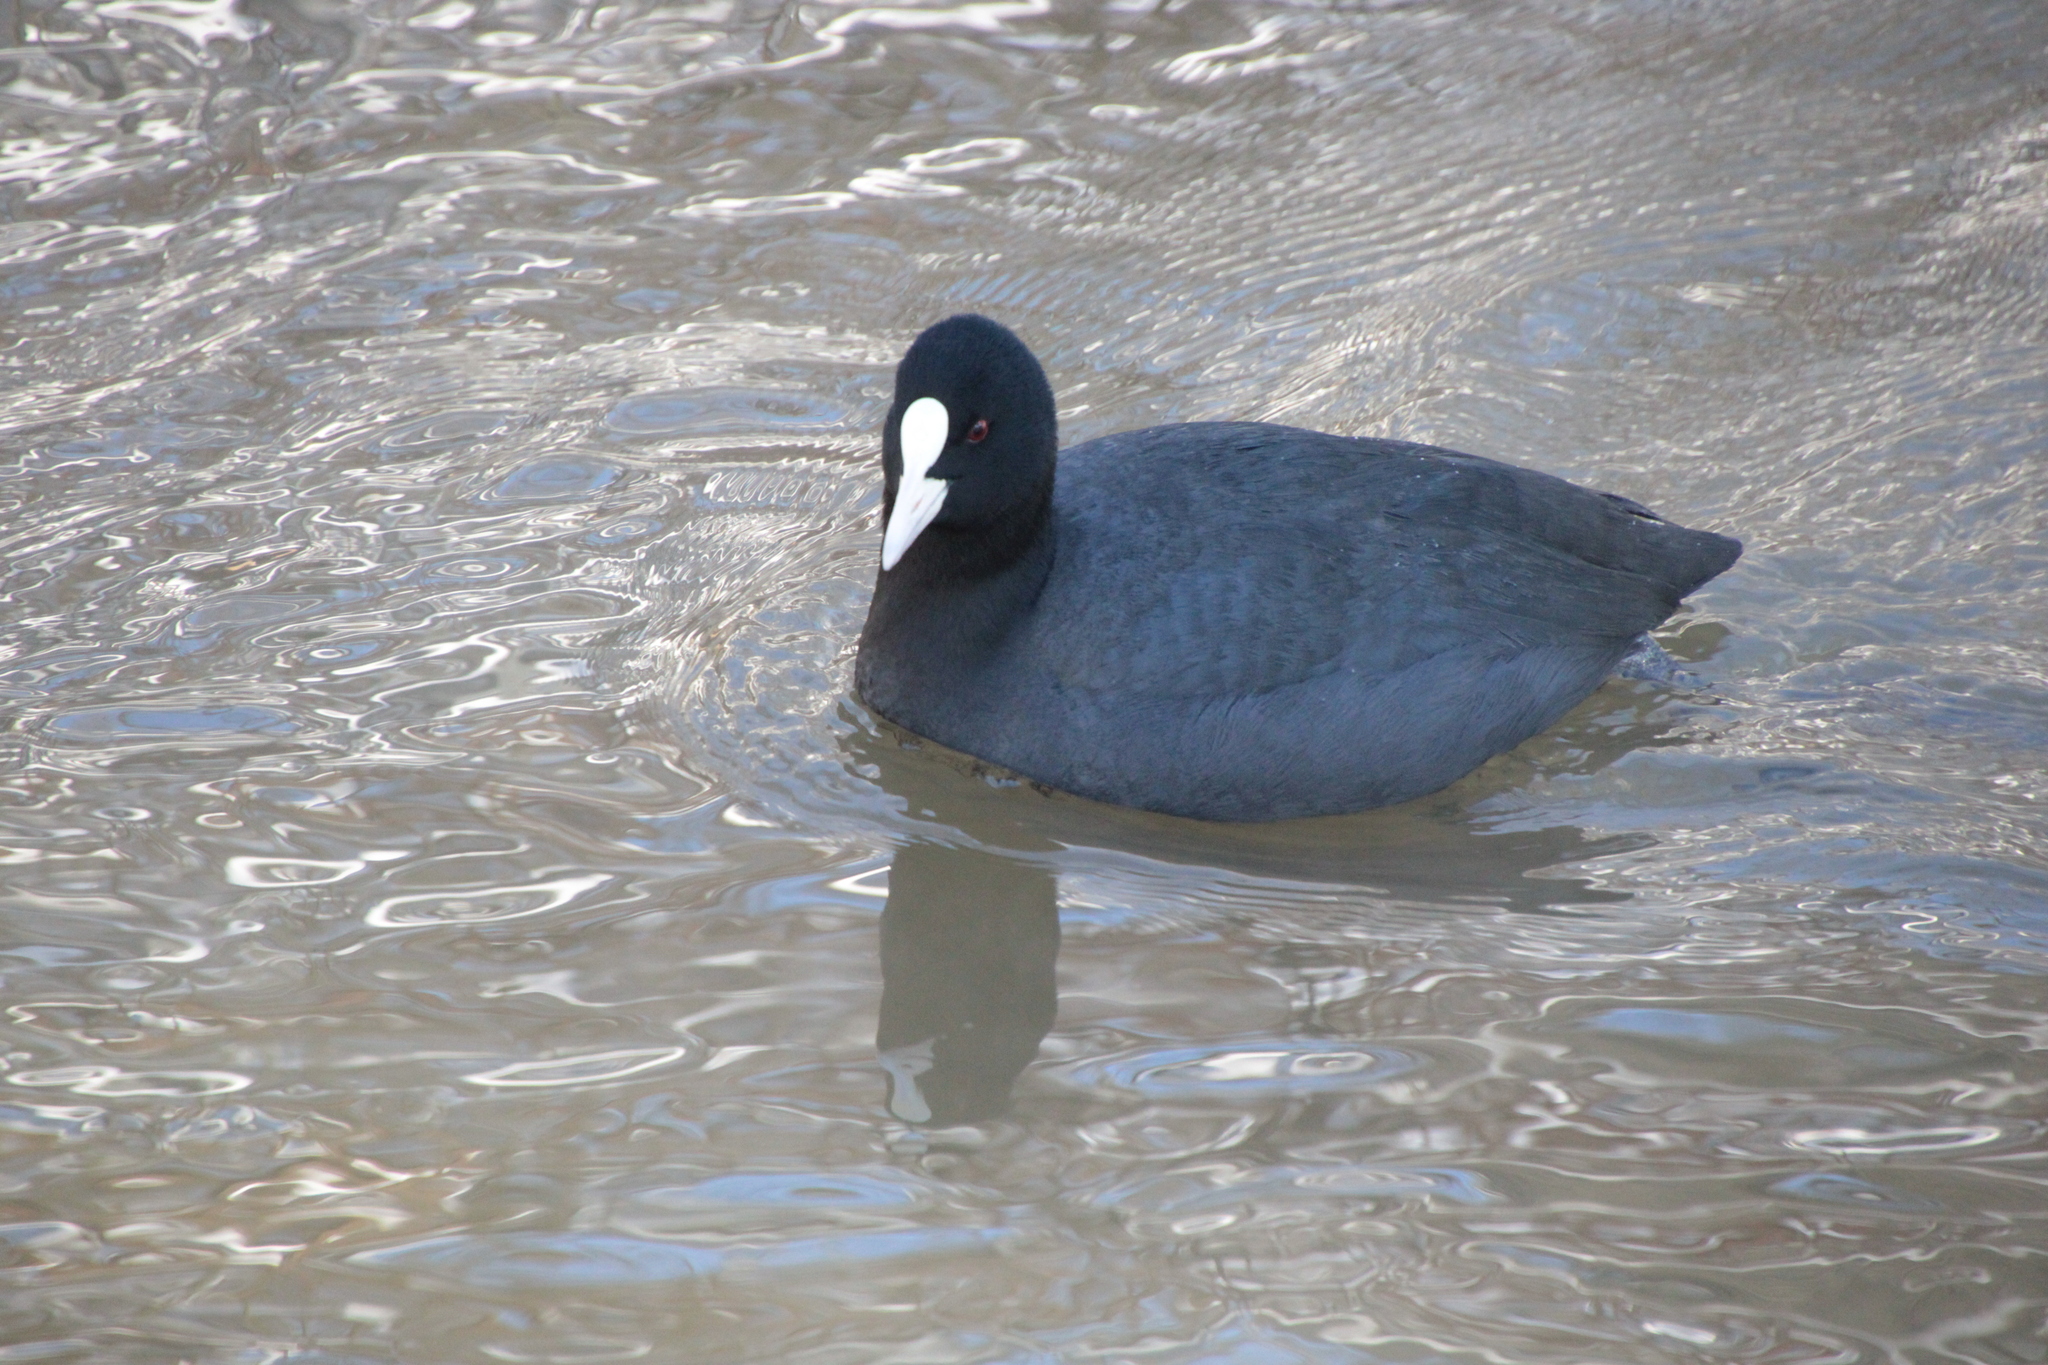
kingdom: Animalia
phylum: Chordata
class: Aves
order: Gruiformes
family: Rallidae
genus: Fulica
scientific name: Fulica atra
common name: Eurasian coot
